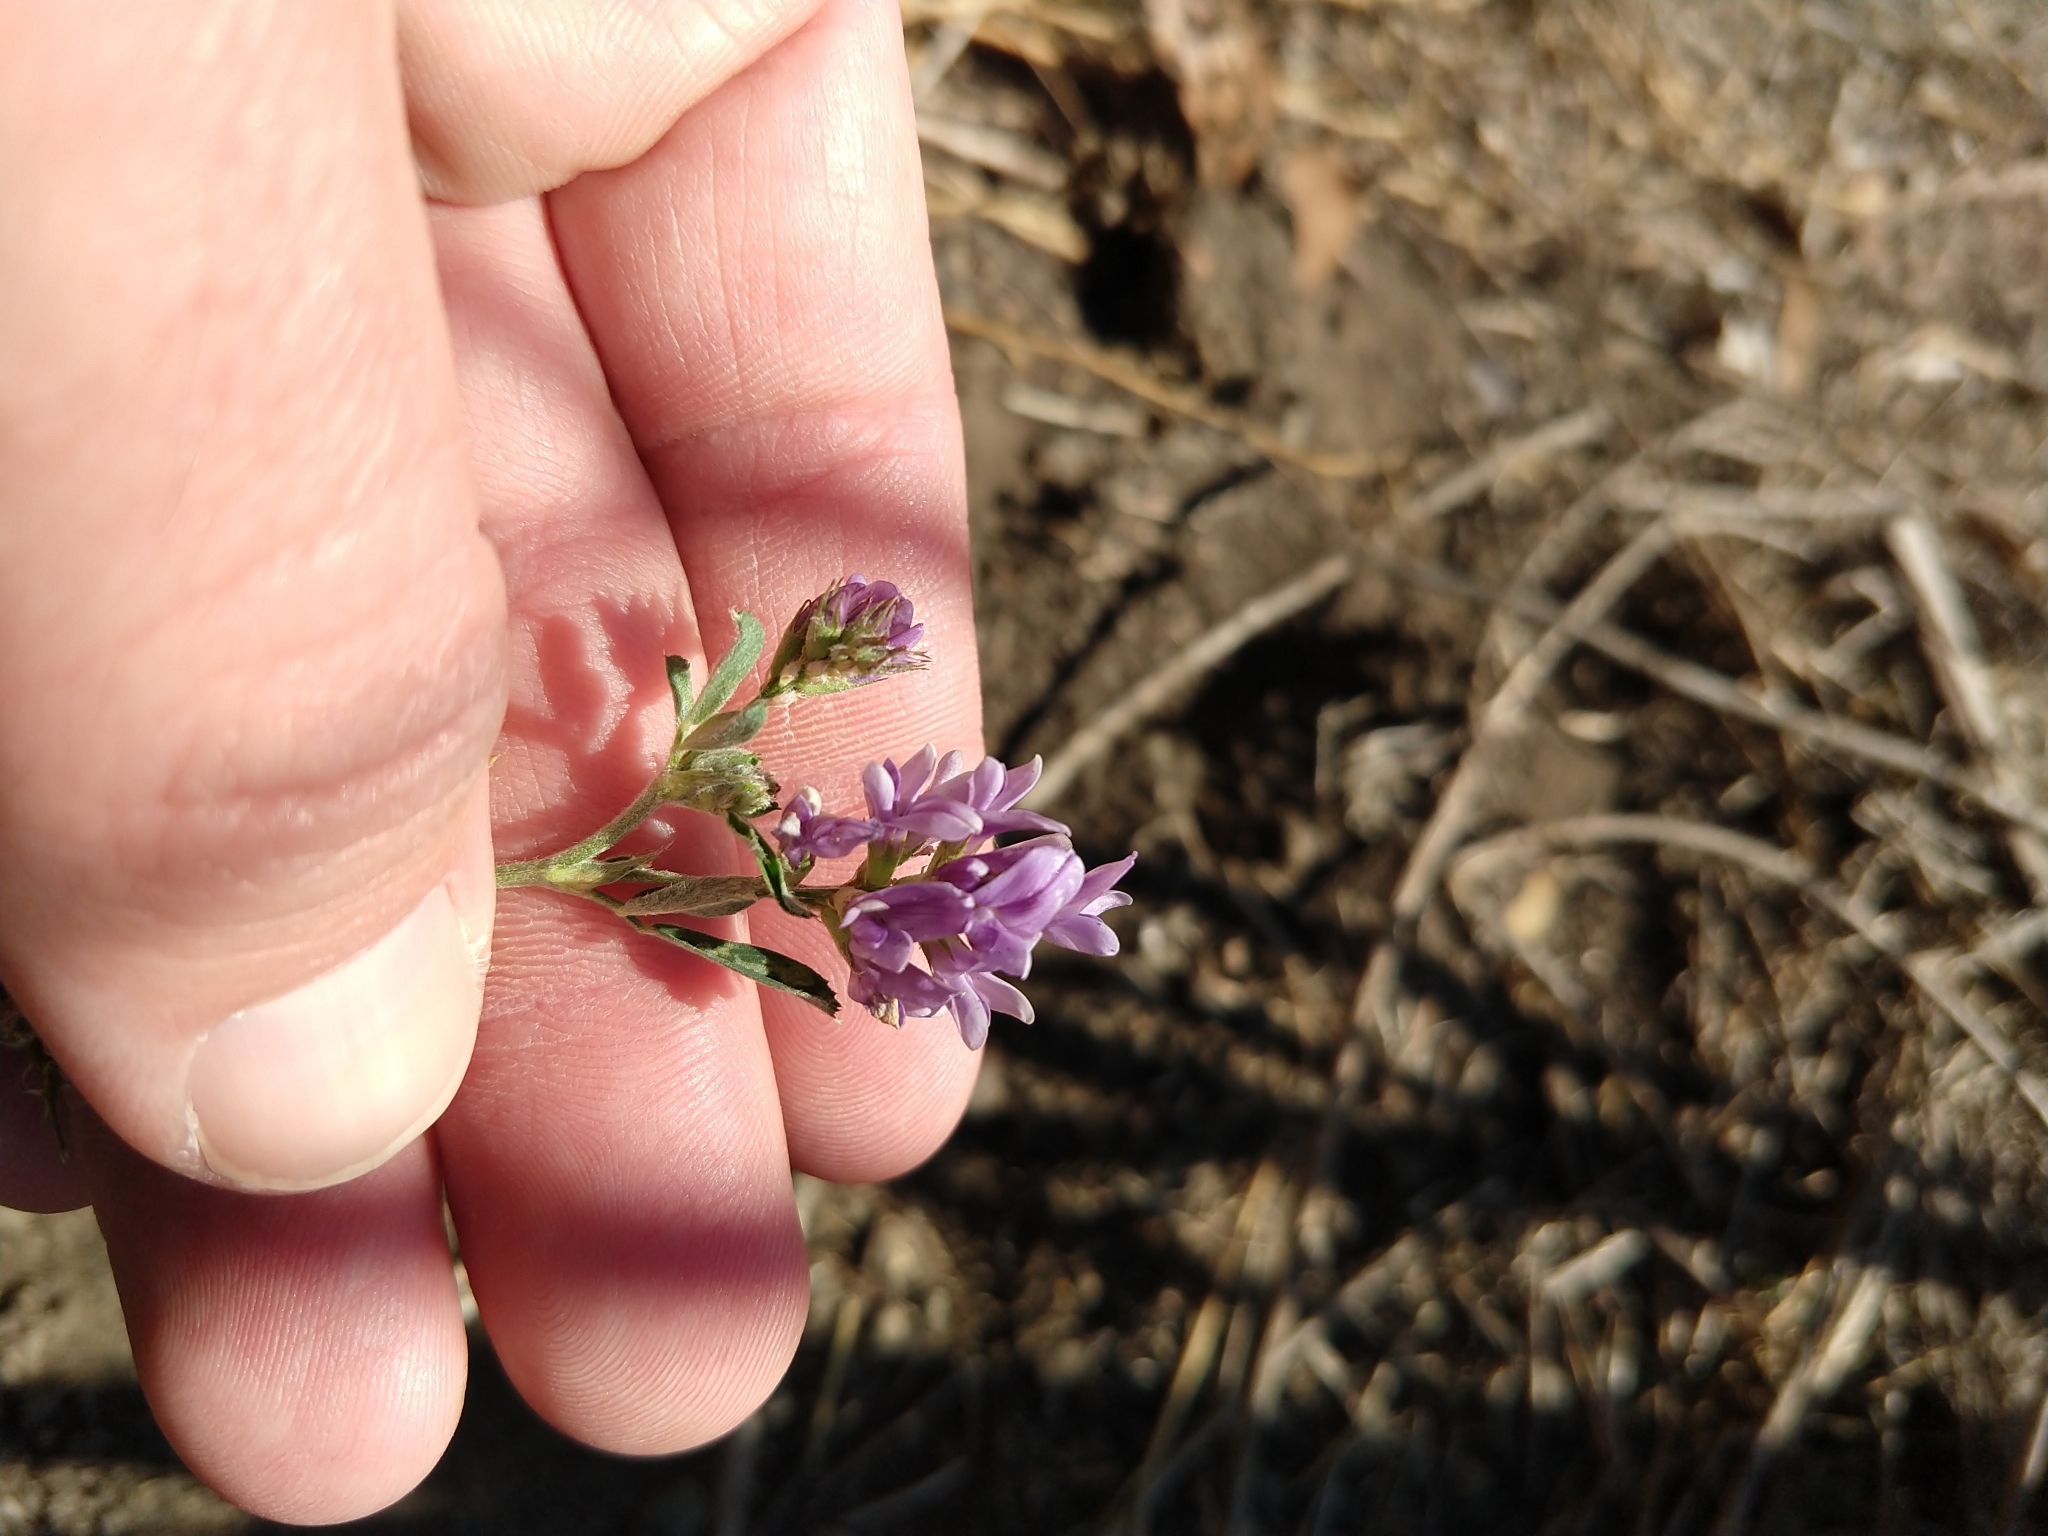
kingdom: Plantae
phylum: Tracheophyta
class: Magnoliopsida
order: Fabales
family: Fabaceae
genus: Medicago
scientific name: Medicago sativa
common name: Alfalfa
